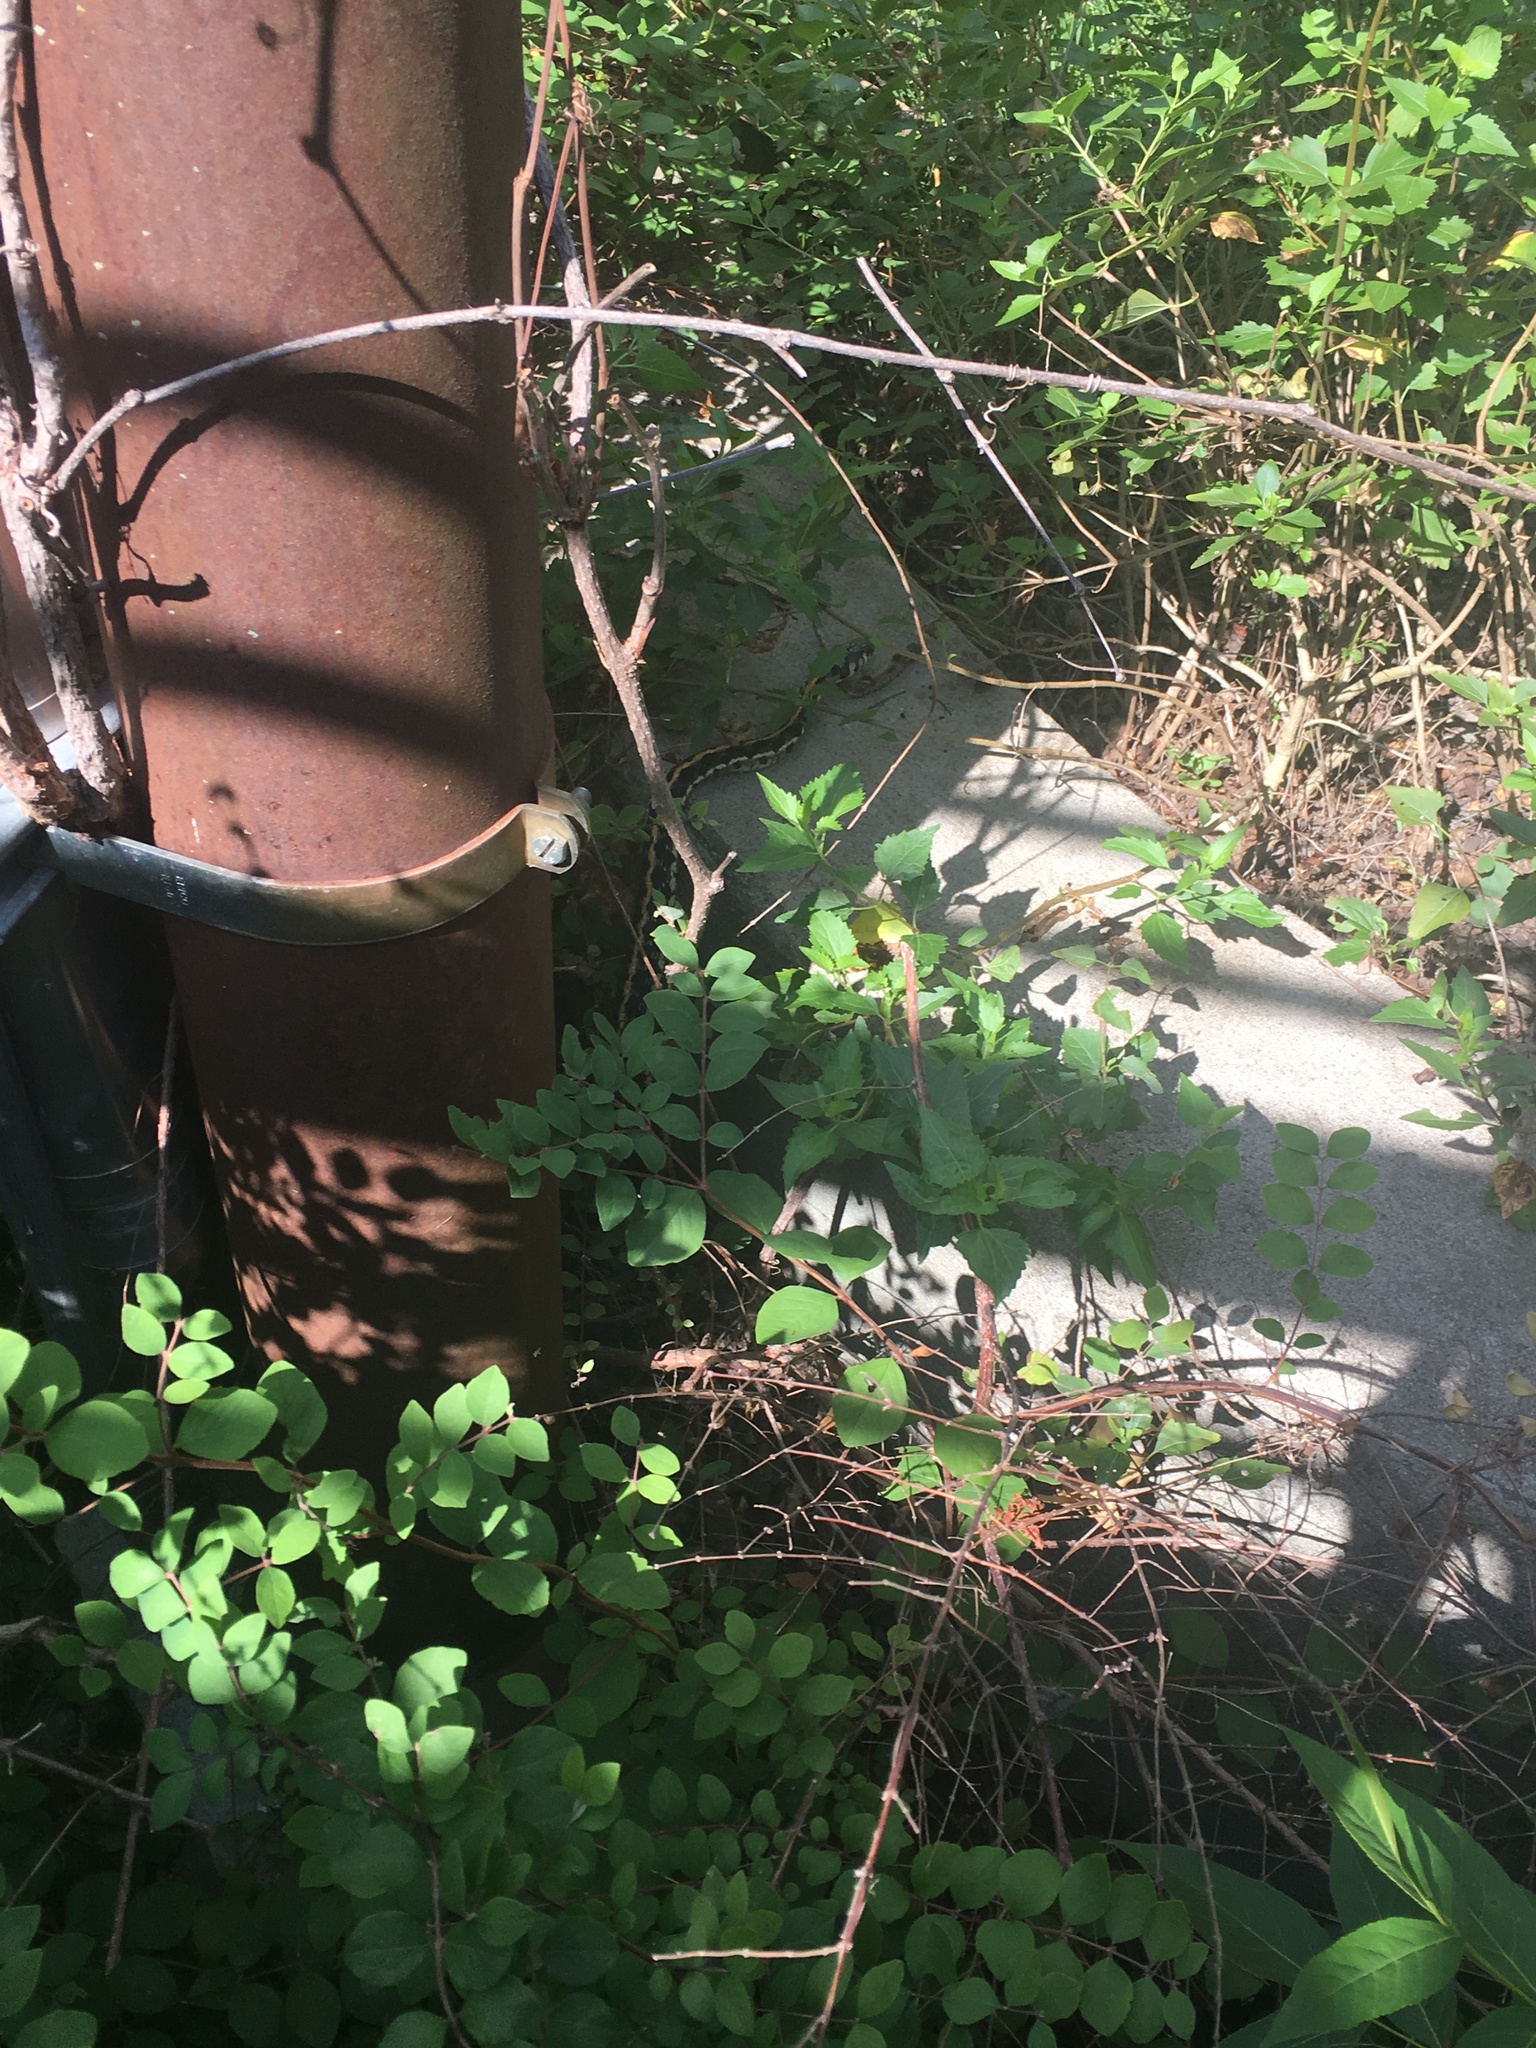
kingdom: Animalia
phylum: Chordata
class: Squamata
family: Colubridae
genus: Thamnophis
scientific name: Thamnophis cyrtopsis
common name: Black-necked gartersnake
